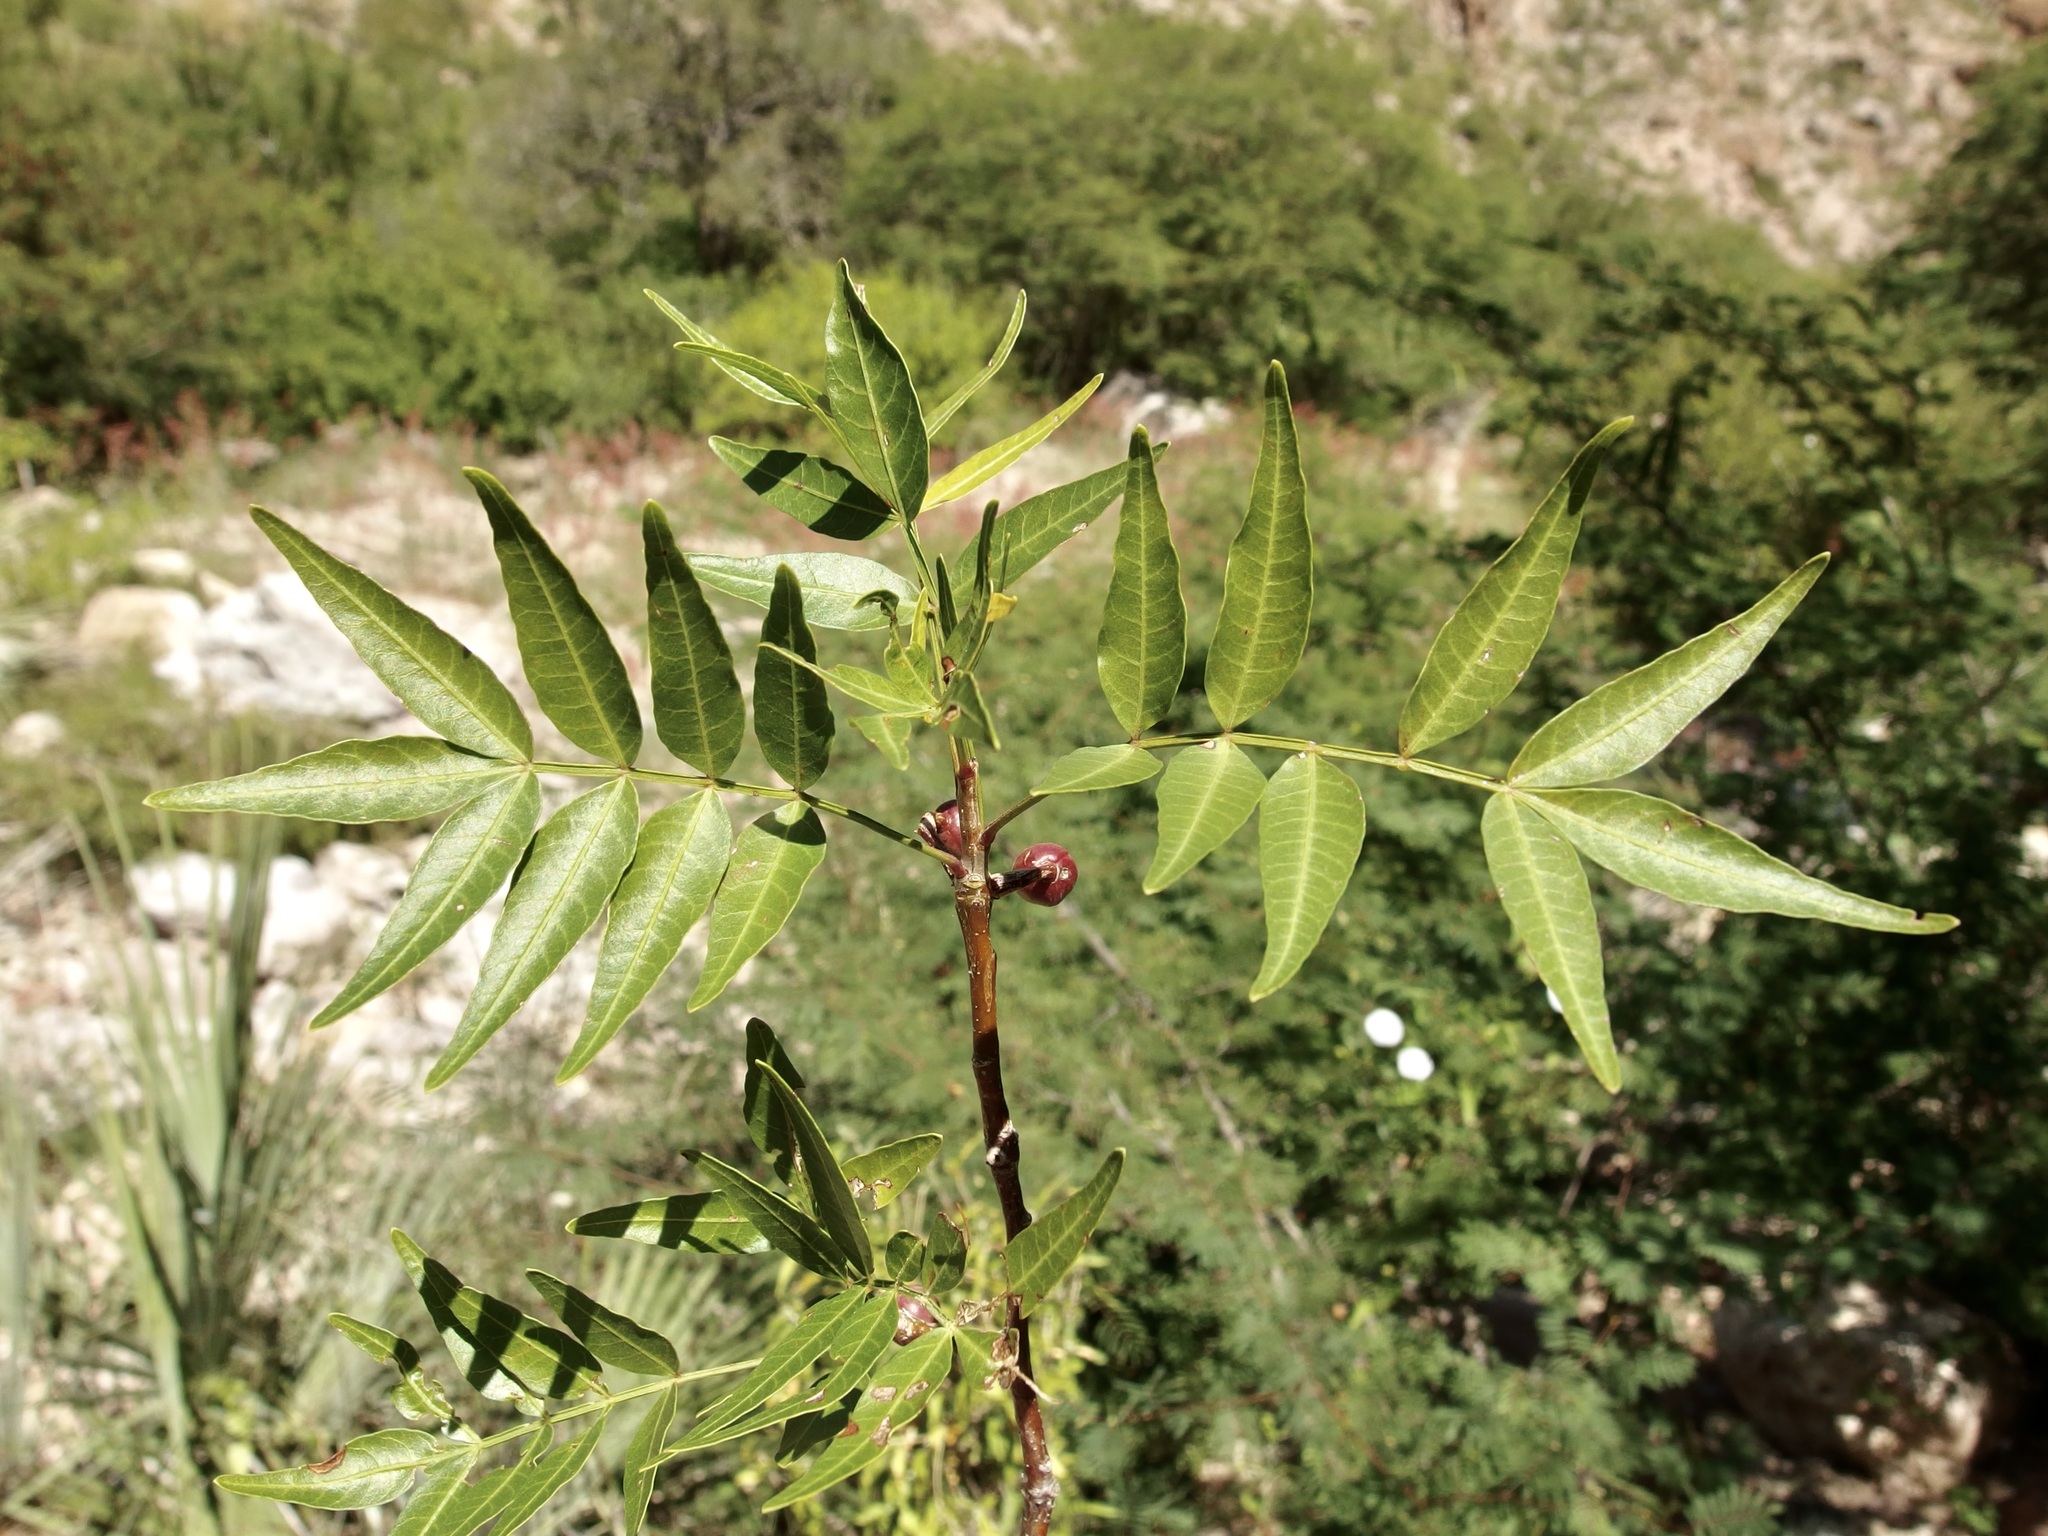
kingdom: Plantae
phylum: Tracheophyta
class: Magnoliopsida
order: Sapindales
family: Burseraceae
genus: Bursera
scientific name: Bursera fagaroides
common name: Elephant tree
